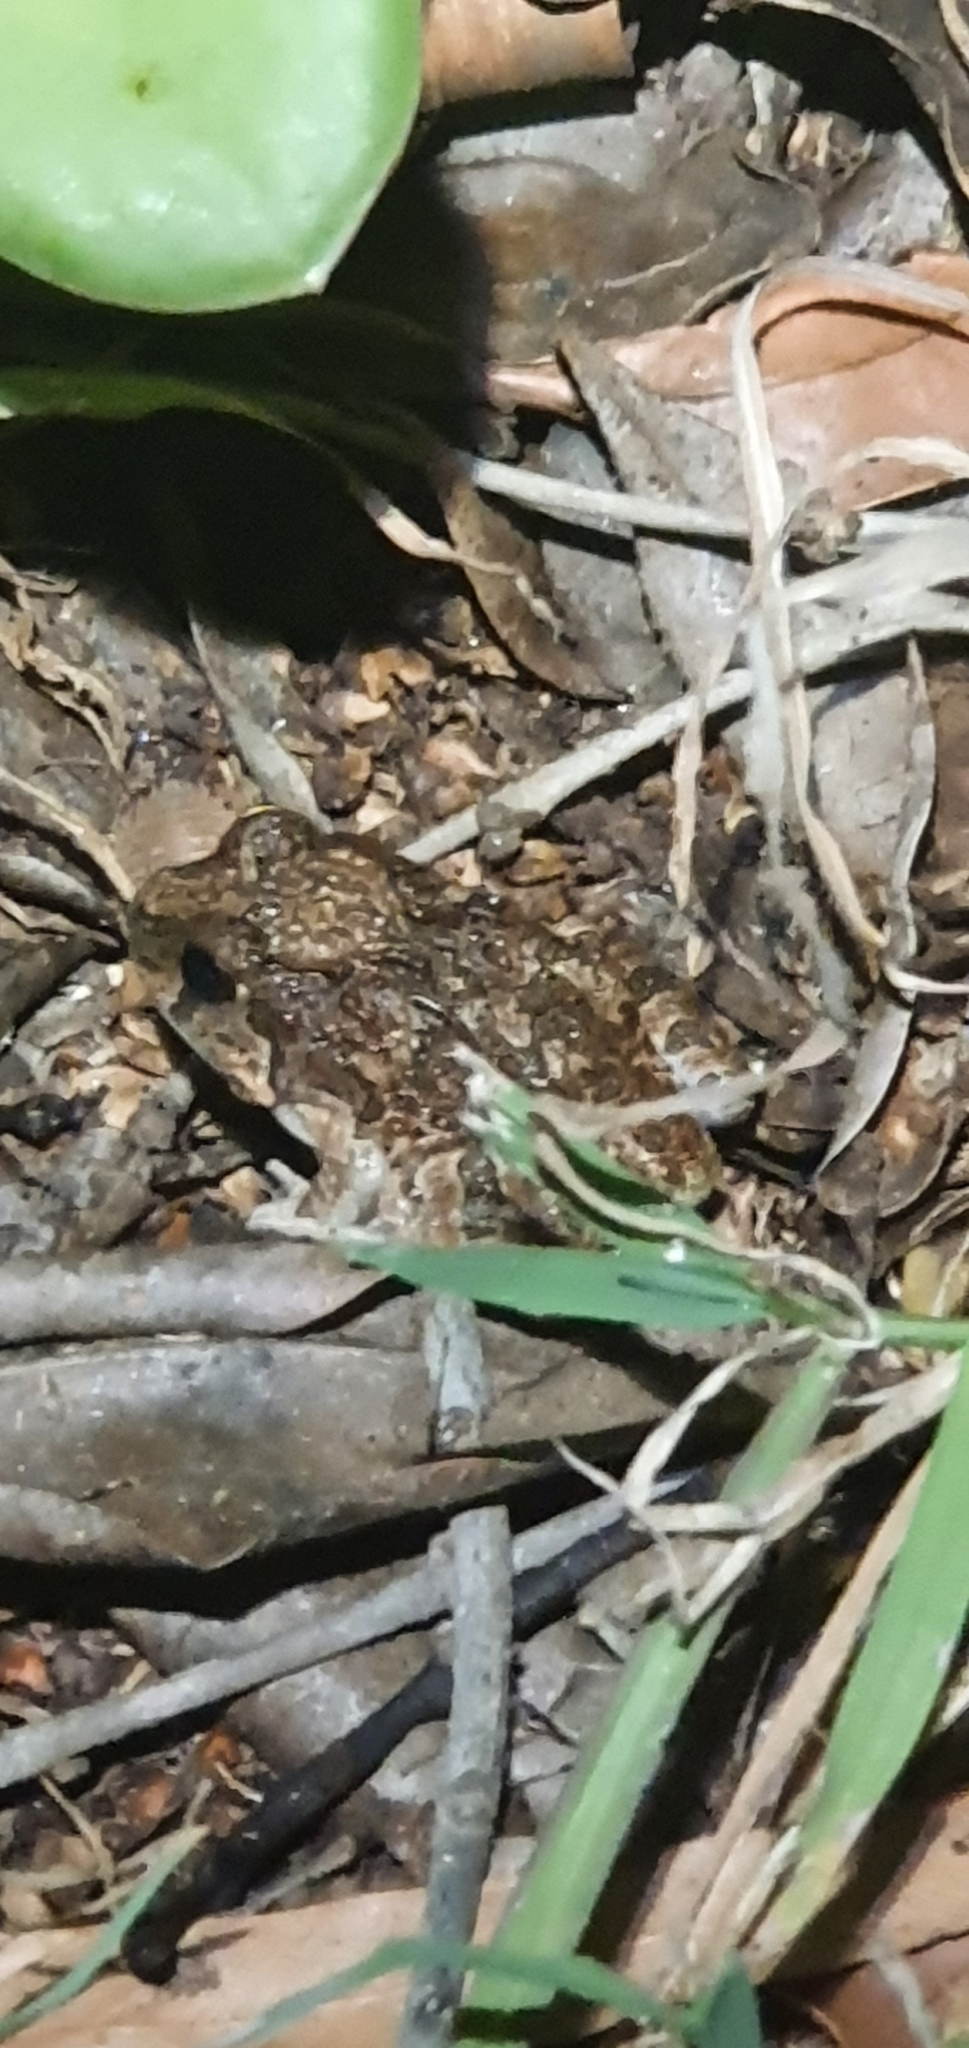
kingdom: Animalia
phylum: Chordata
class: Amphibia
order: Anura
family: Limnodynastidae
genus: Platyplectrum
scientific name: Platyplectrum ornatum
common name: Ornate burrowing frog
